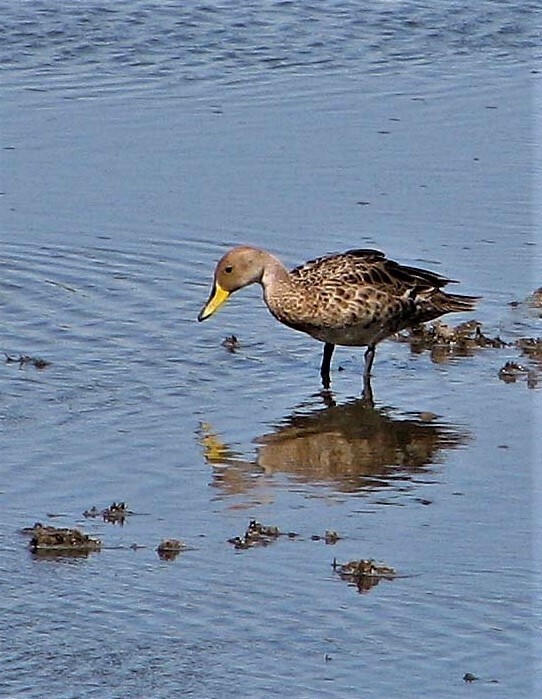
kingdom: Animalia
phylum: Chordata
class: Aves
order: Anseriformes
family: Anatidae
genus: Anas
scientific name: Anas georgica
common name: Yellow-billed pintail
